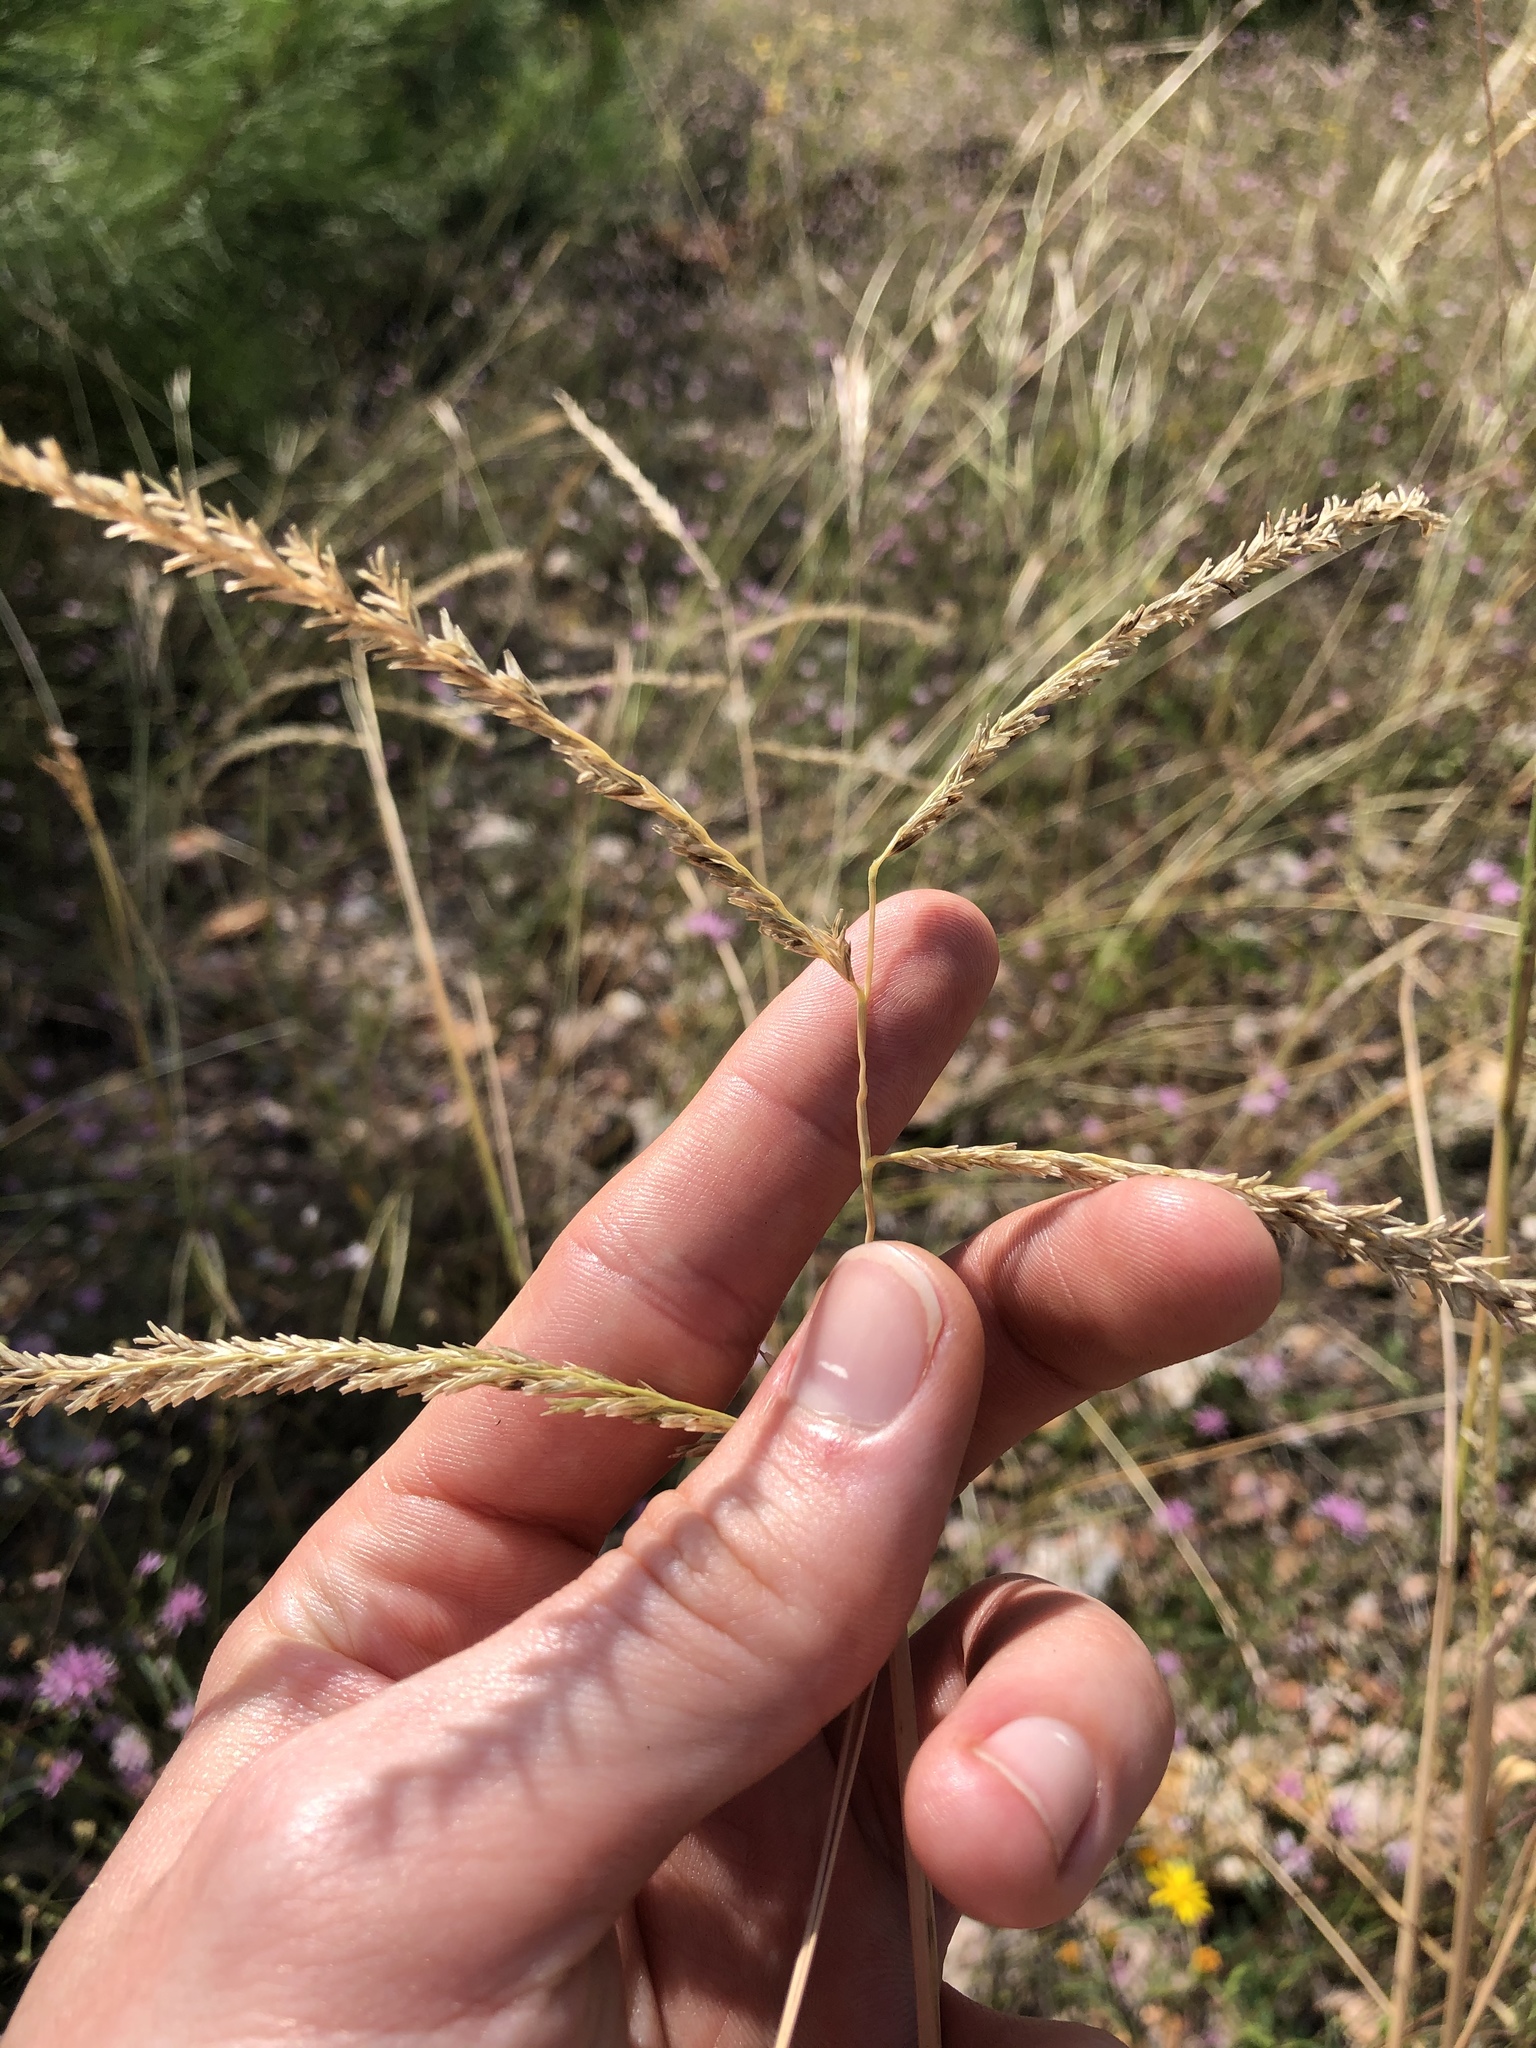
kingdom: Plantae
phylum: Tracheophyta
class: Liliopsida
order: Poales
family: Poaceae
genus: Disakisperma
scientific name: Disakisperma dubium
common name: Green sprangletop
